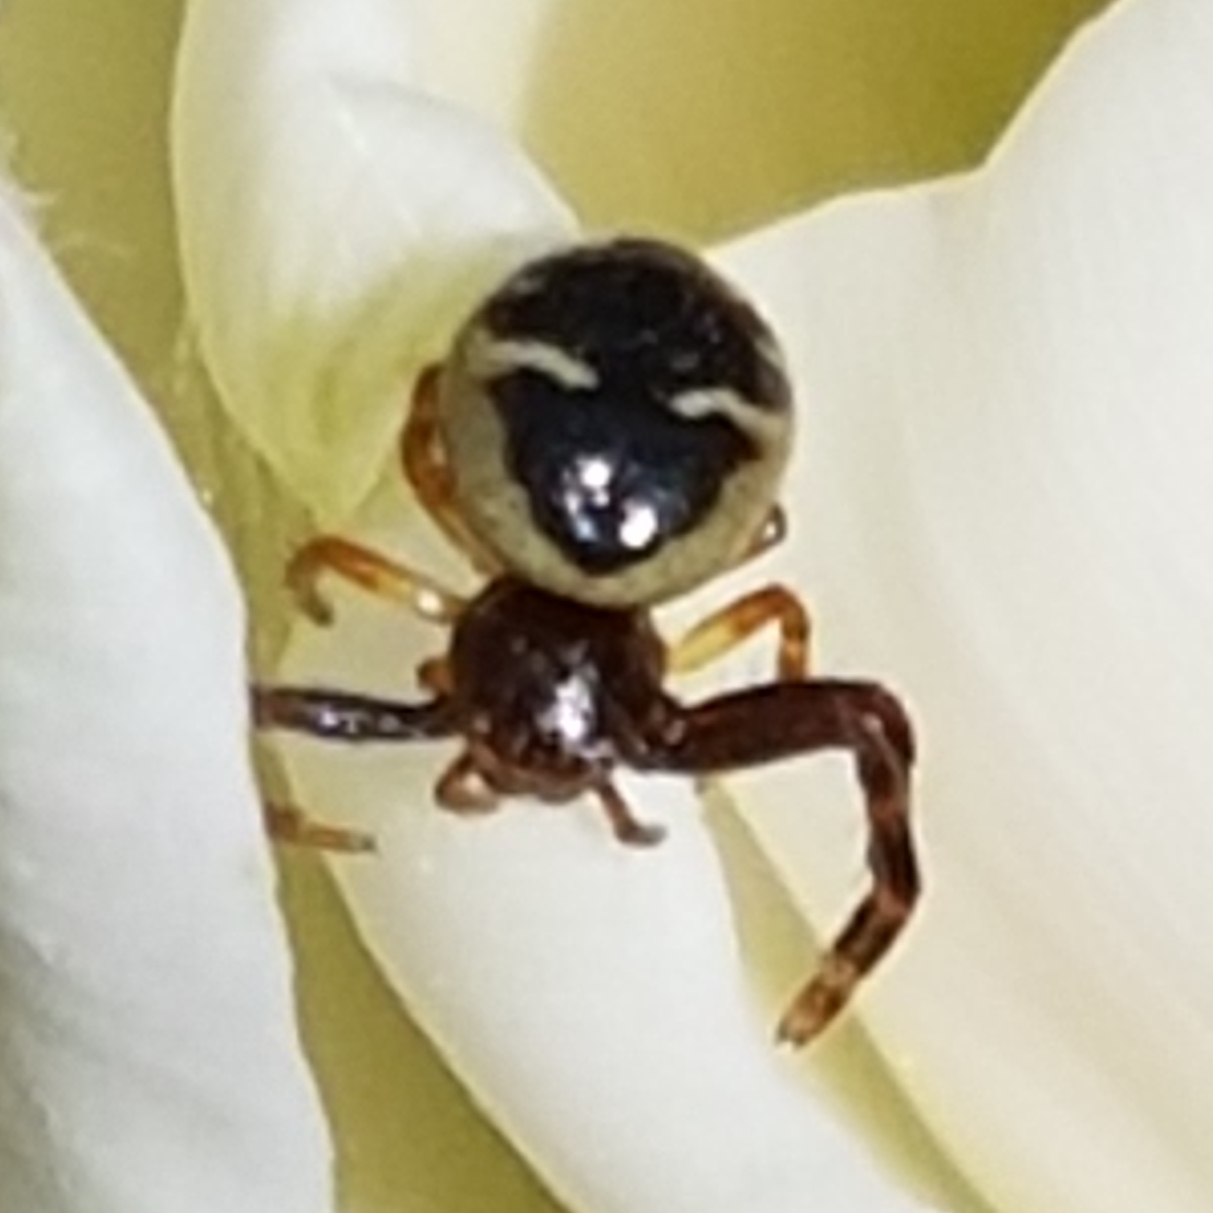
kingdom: Animalia
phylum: Arthropoda
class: Arachnida
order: Araneae
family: Thomisidae
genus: Synema
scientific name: Synema globosum
